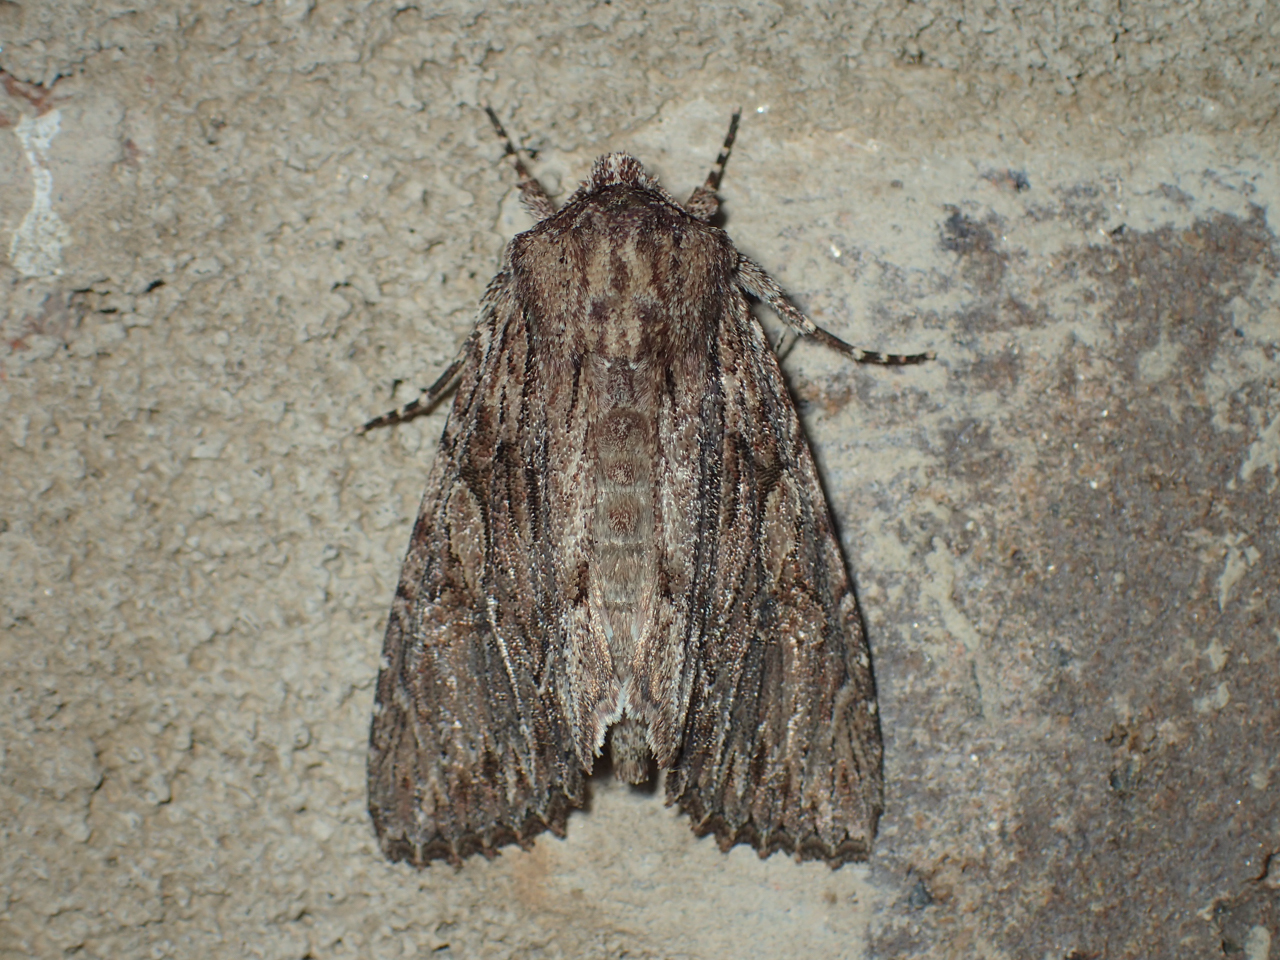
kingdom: Animalia
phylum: Arthropoda
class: Insecta
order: Lepidoptera
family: Noctuidae
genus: Achatia
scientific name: Achatia confusa
